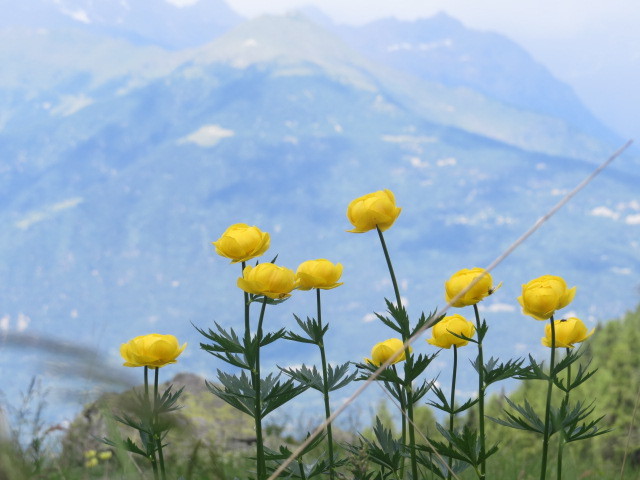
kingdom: Plantae
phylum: Tracheophyta
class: Magnoliopsida
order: Ranunculales
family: Ranunculaceae
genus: Trollius
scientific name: Trollius europaeus
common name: European globeflower
